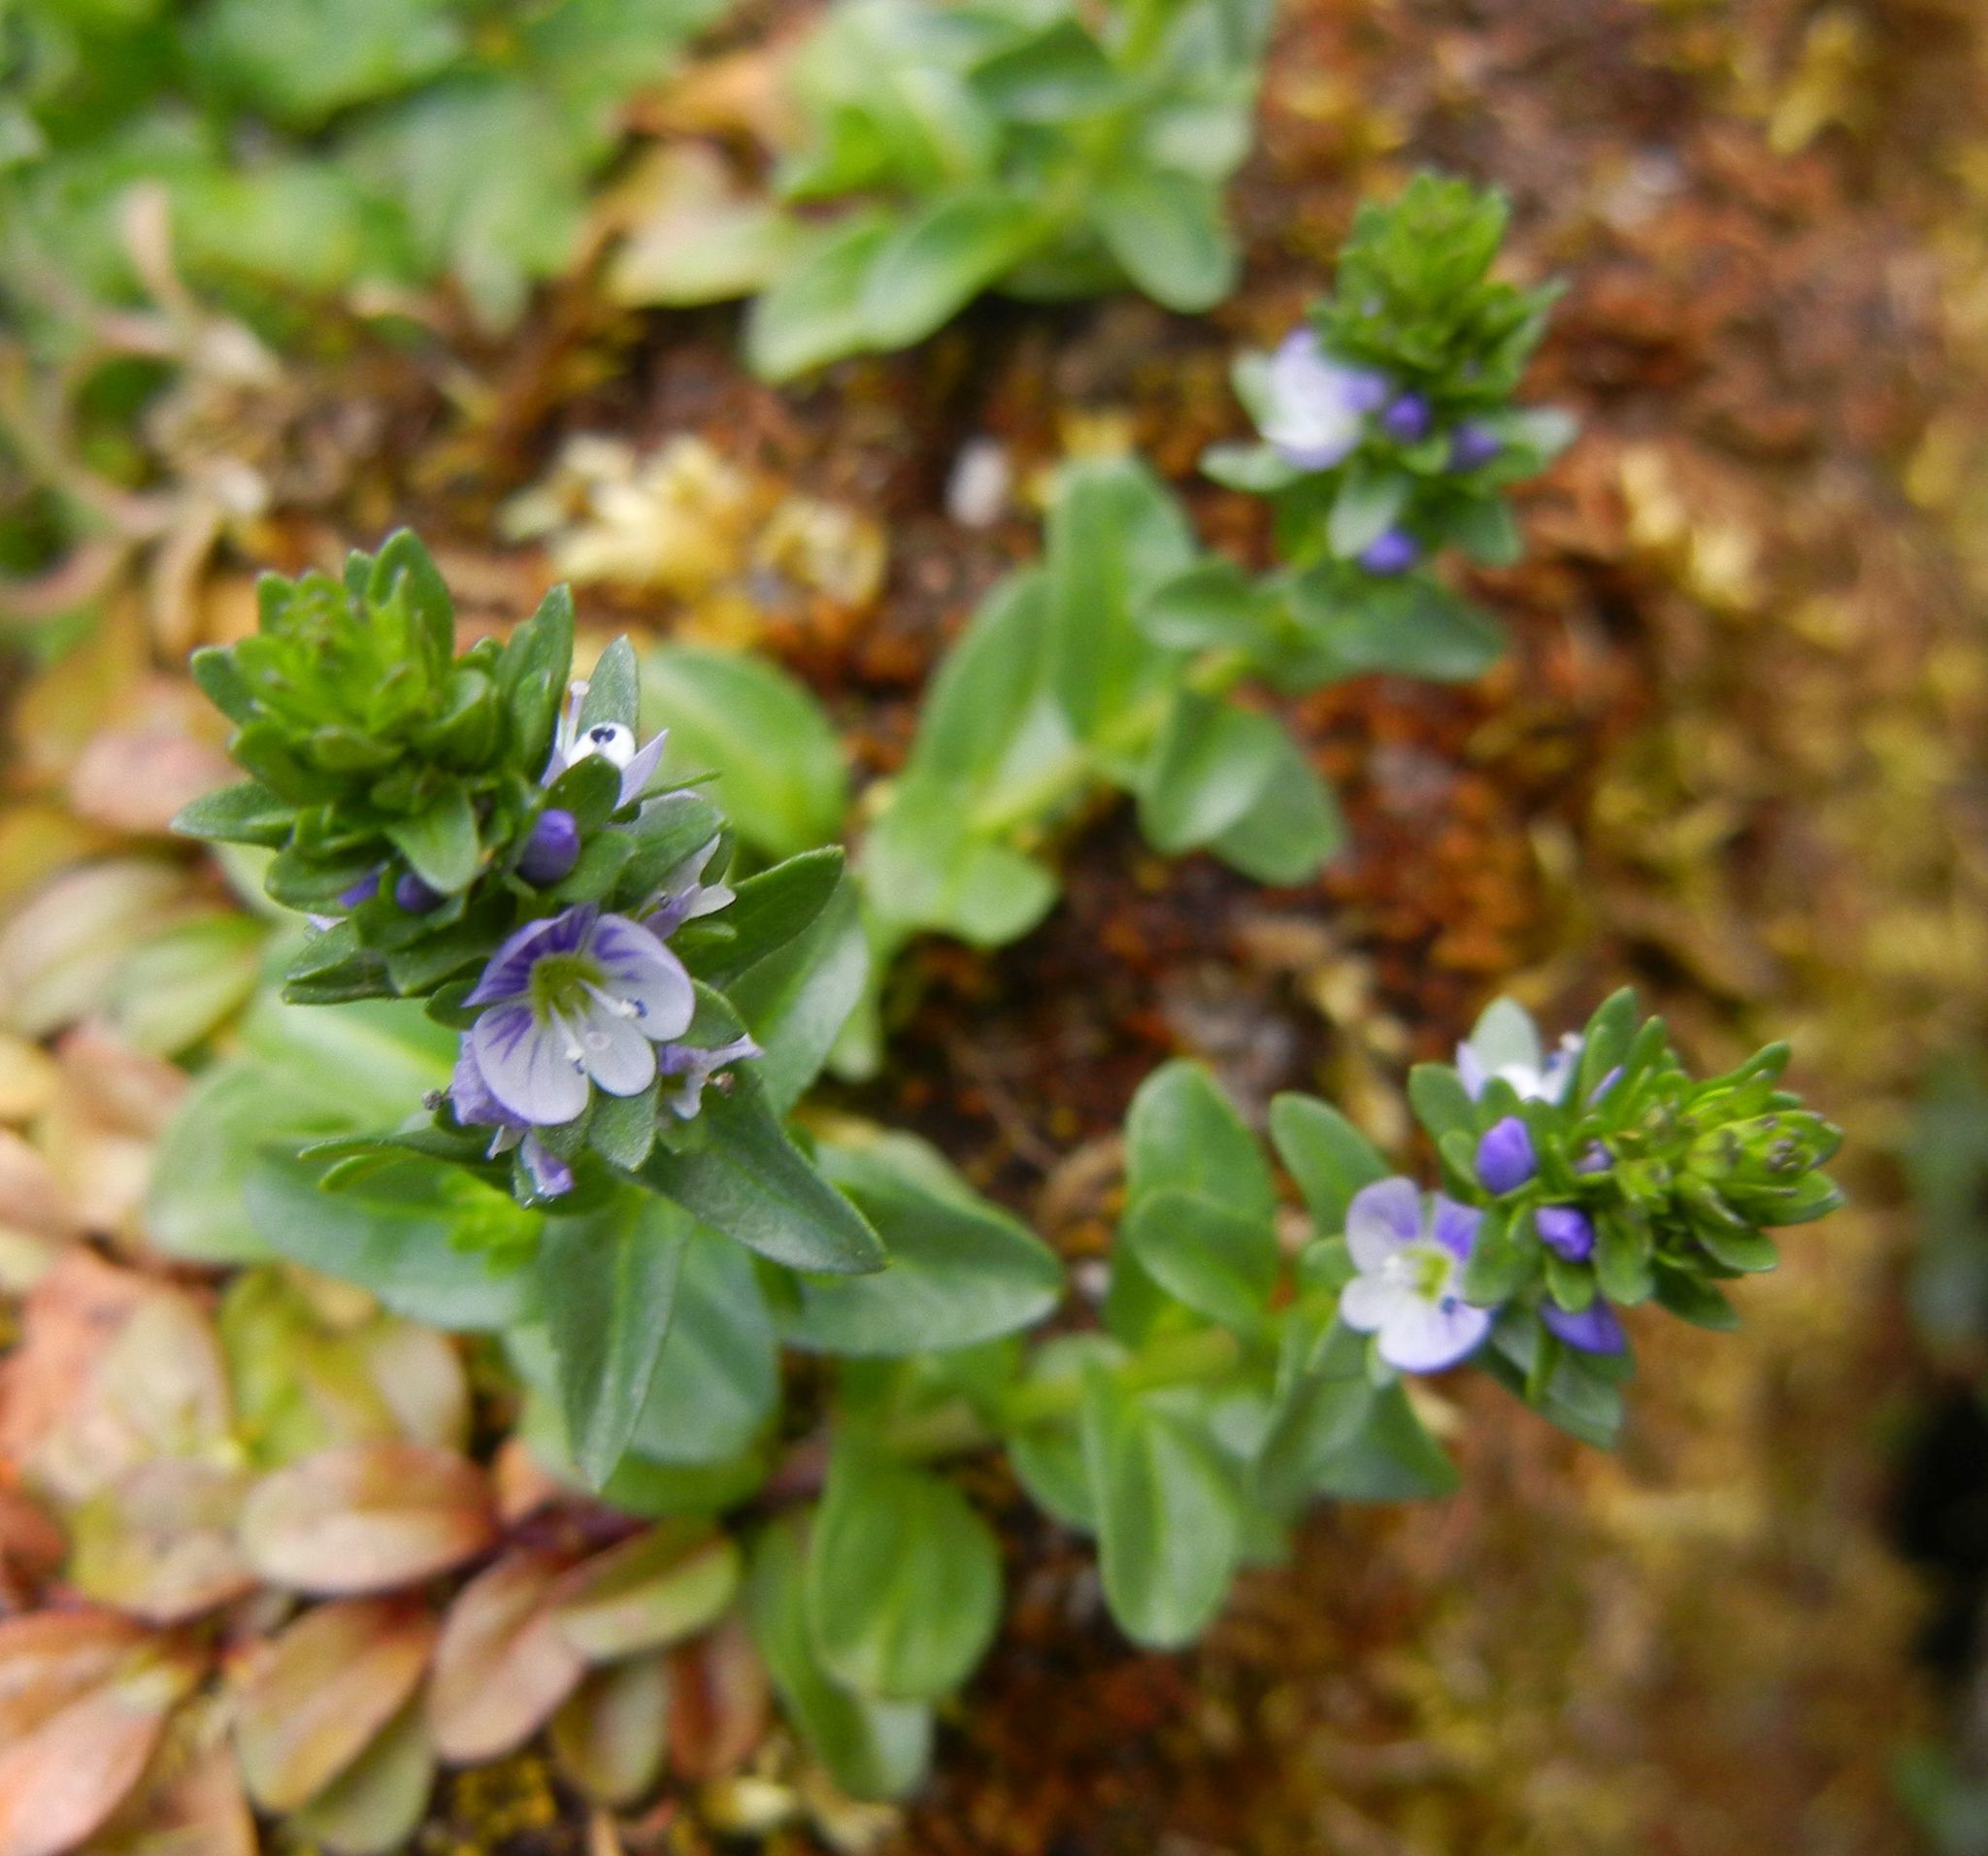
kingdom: Plantae
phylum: Tracheophyta
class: Magnoliopsida
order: Lamiales
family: Plantaginaceae
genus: Veronica
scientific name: Veronica serpyllifolia
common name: Thyme-leaved speedwell
